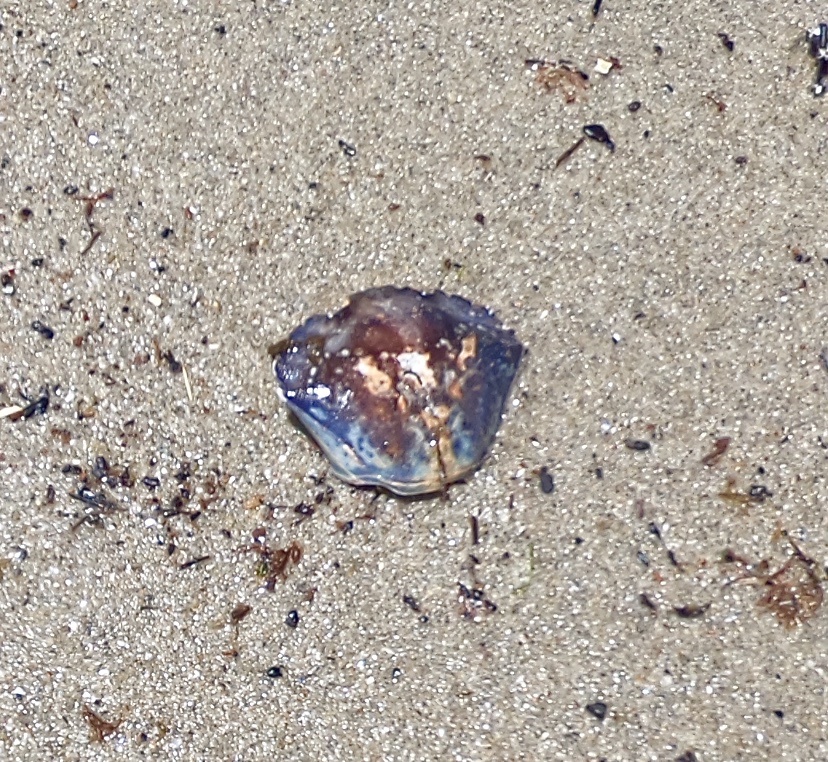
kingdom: Animalia
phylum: Arthropoda
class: Malacostraca
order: Decapoda
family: Carcinidae
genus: Carcinus
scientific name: Carcinus maenas
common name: European green crab
